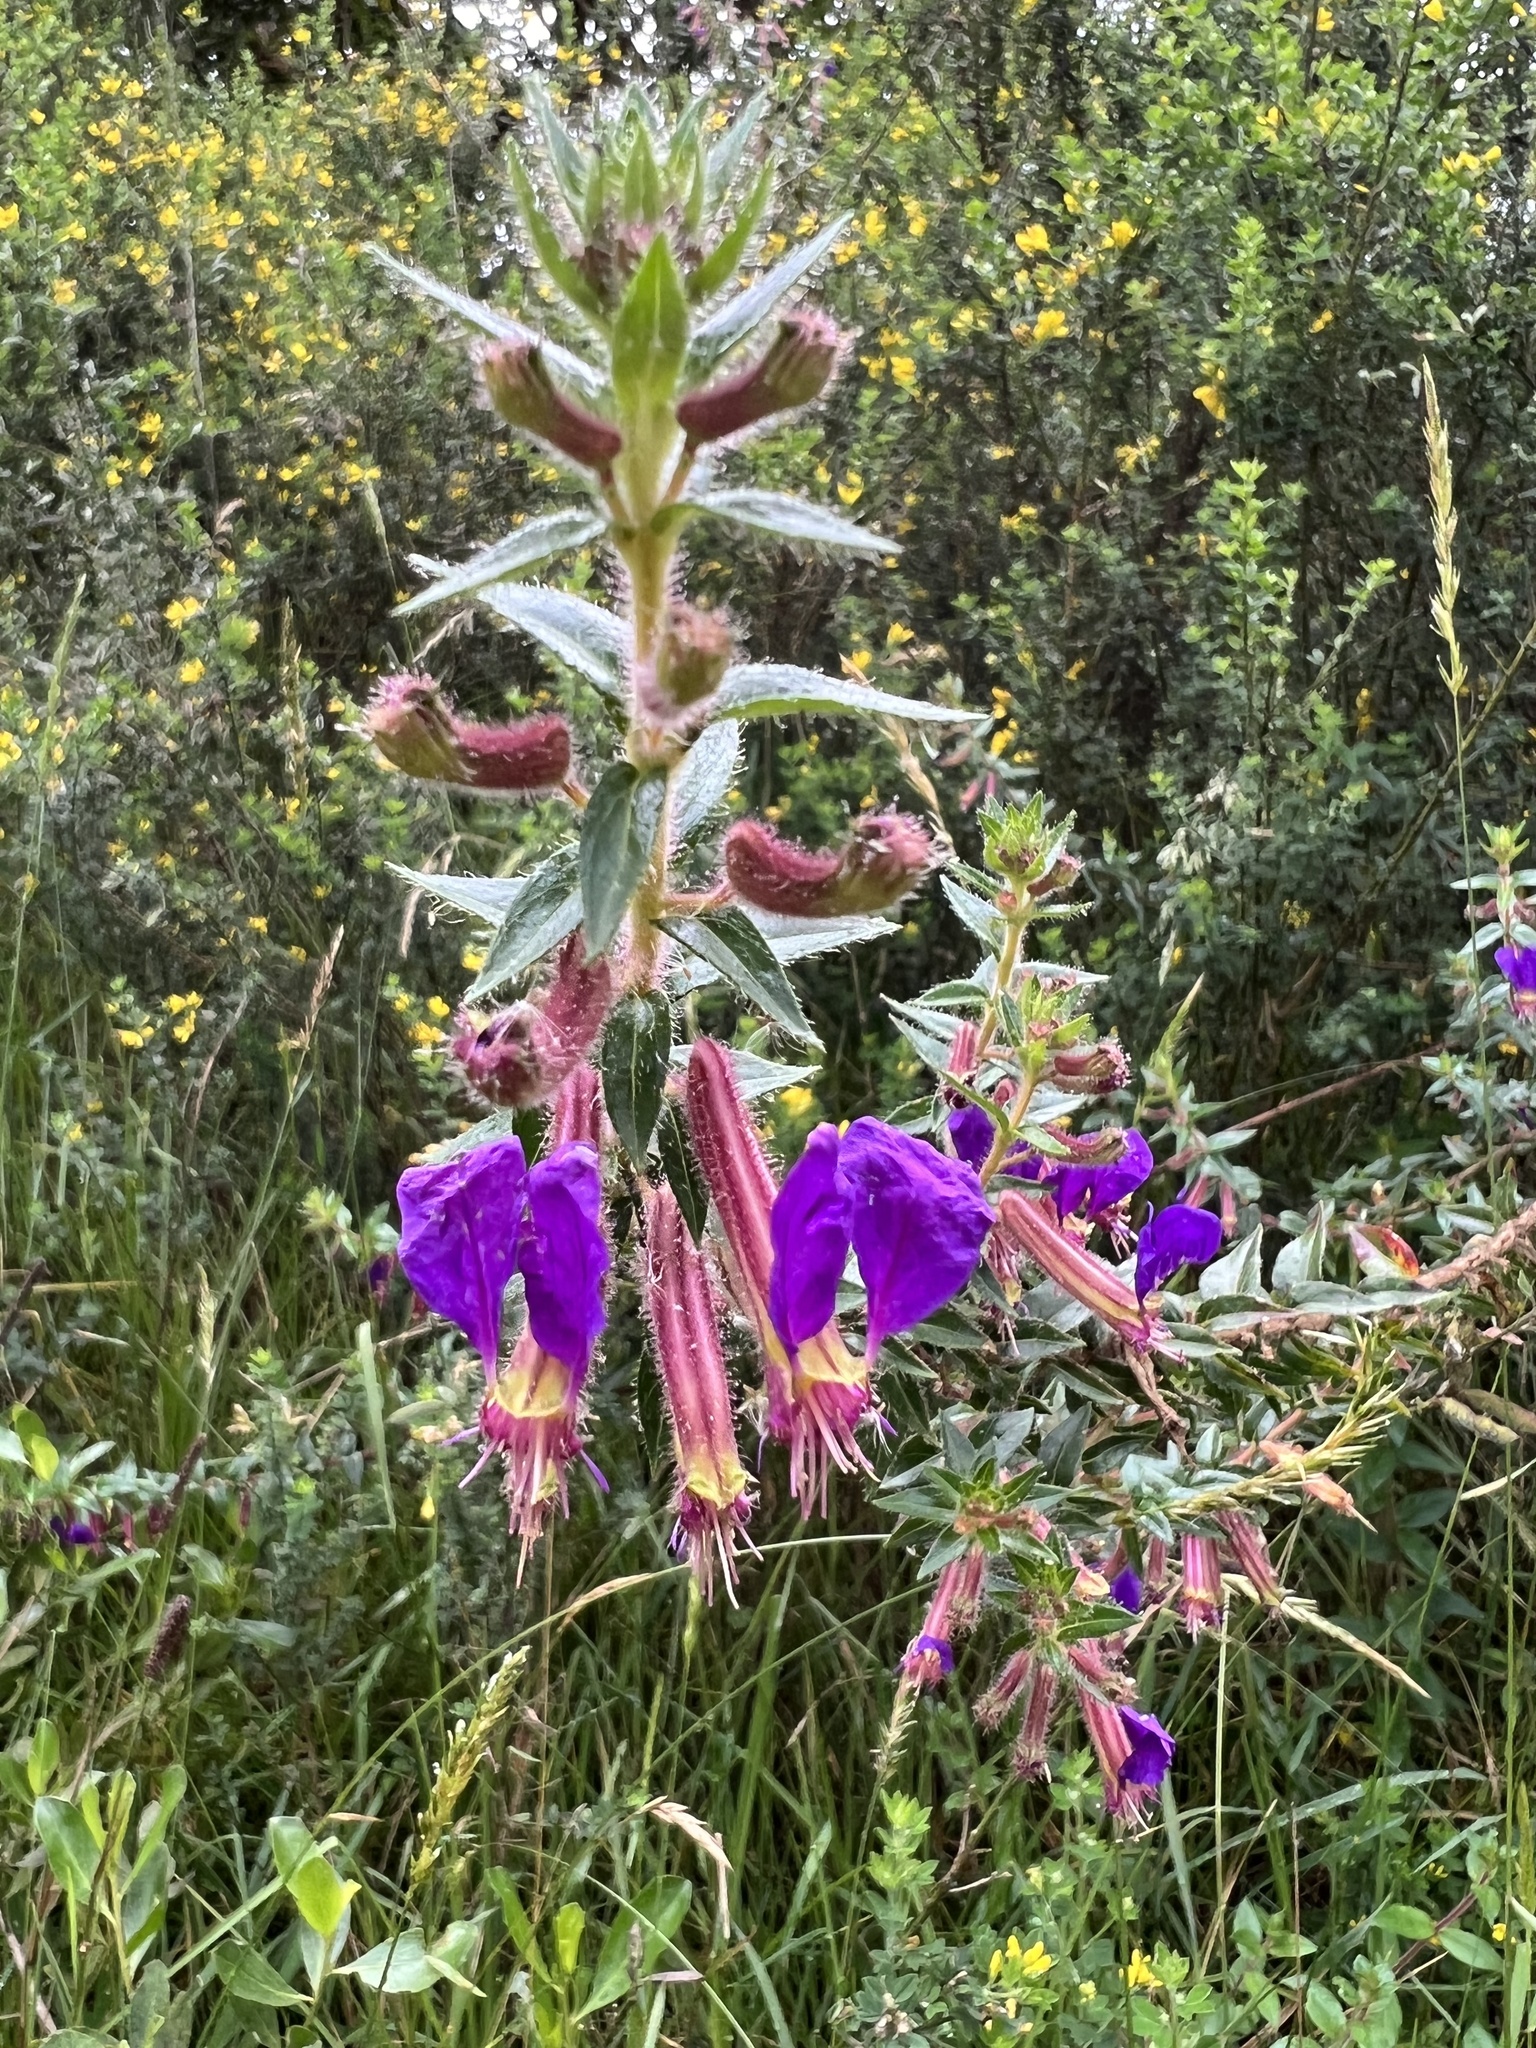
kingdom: Plantae
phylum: Tracheophyta
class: Magnoliopsida
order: Myrtales
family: Lythraceae
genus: Cuphea
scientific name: Cuphea dipetala
